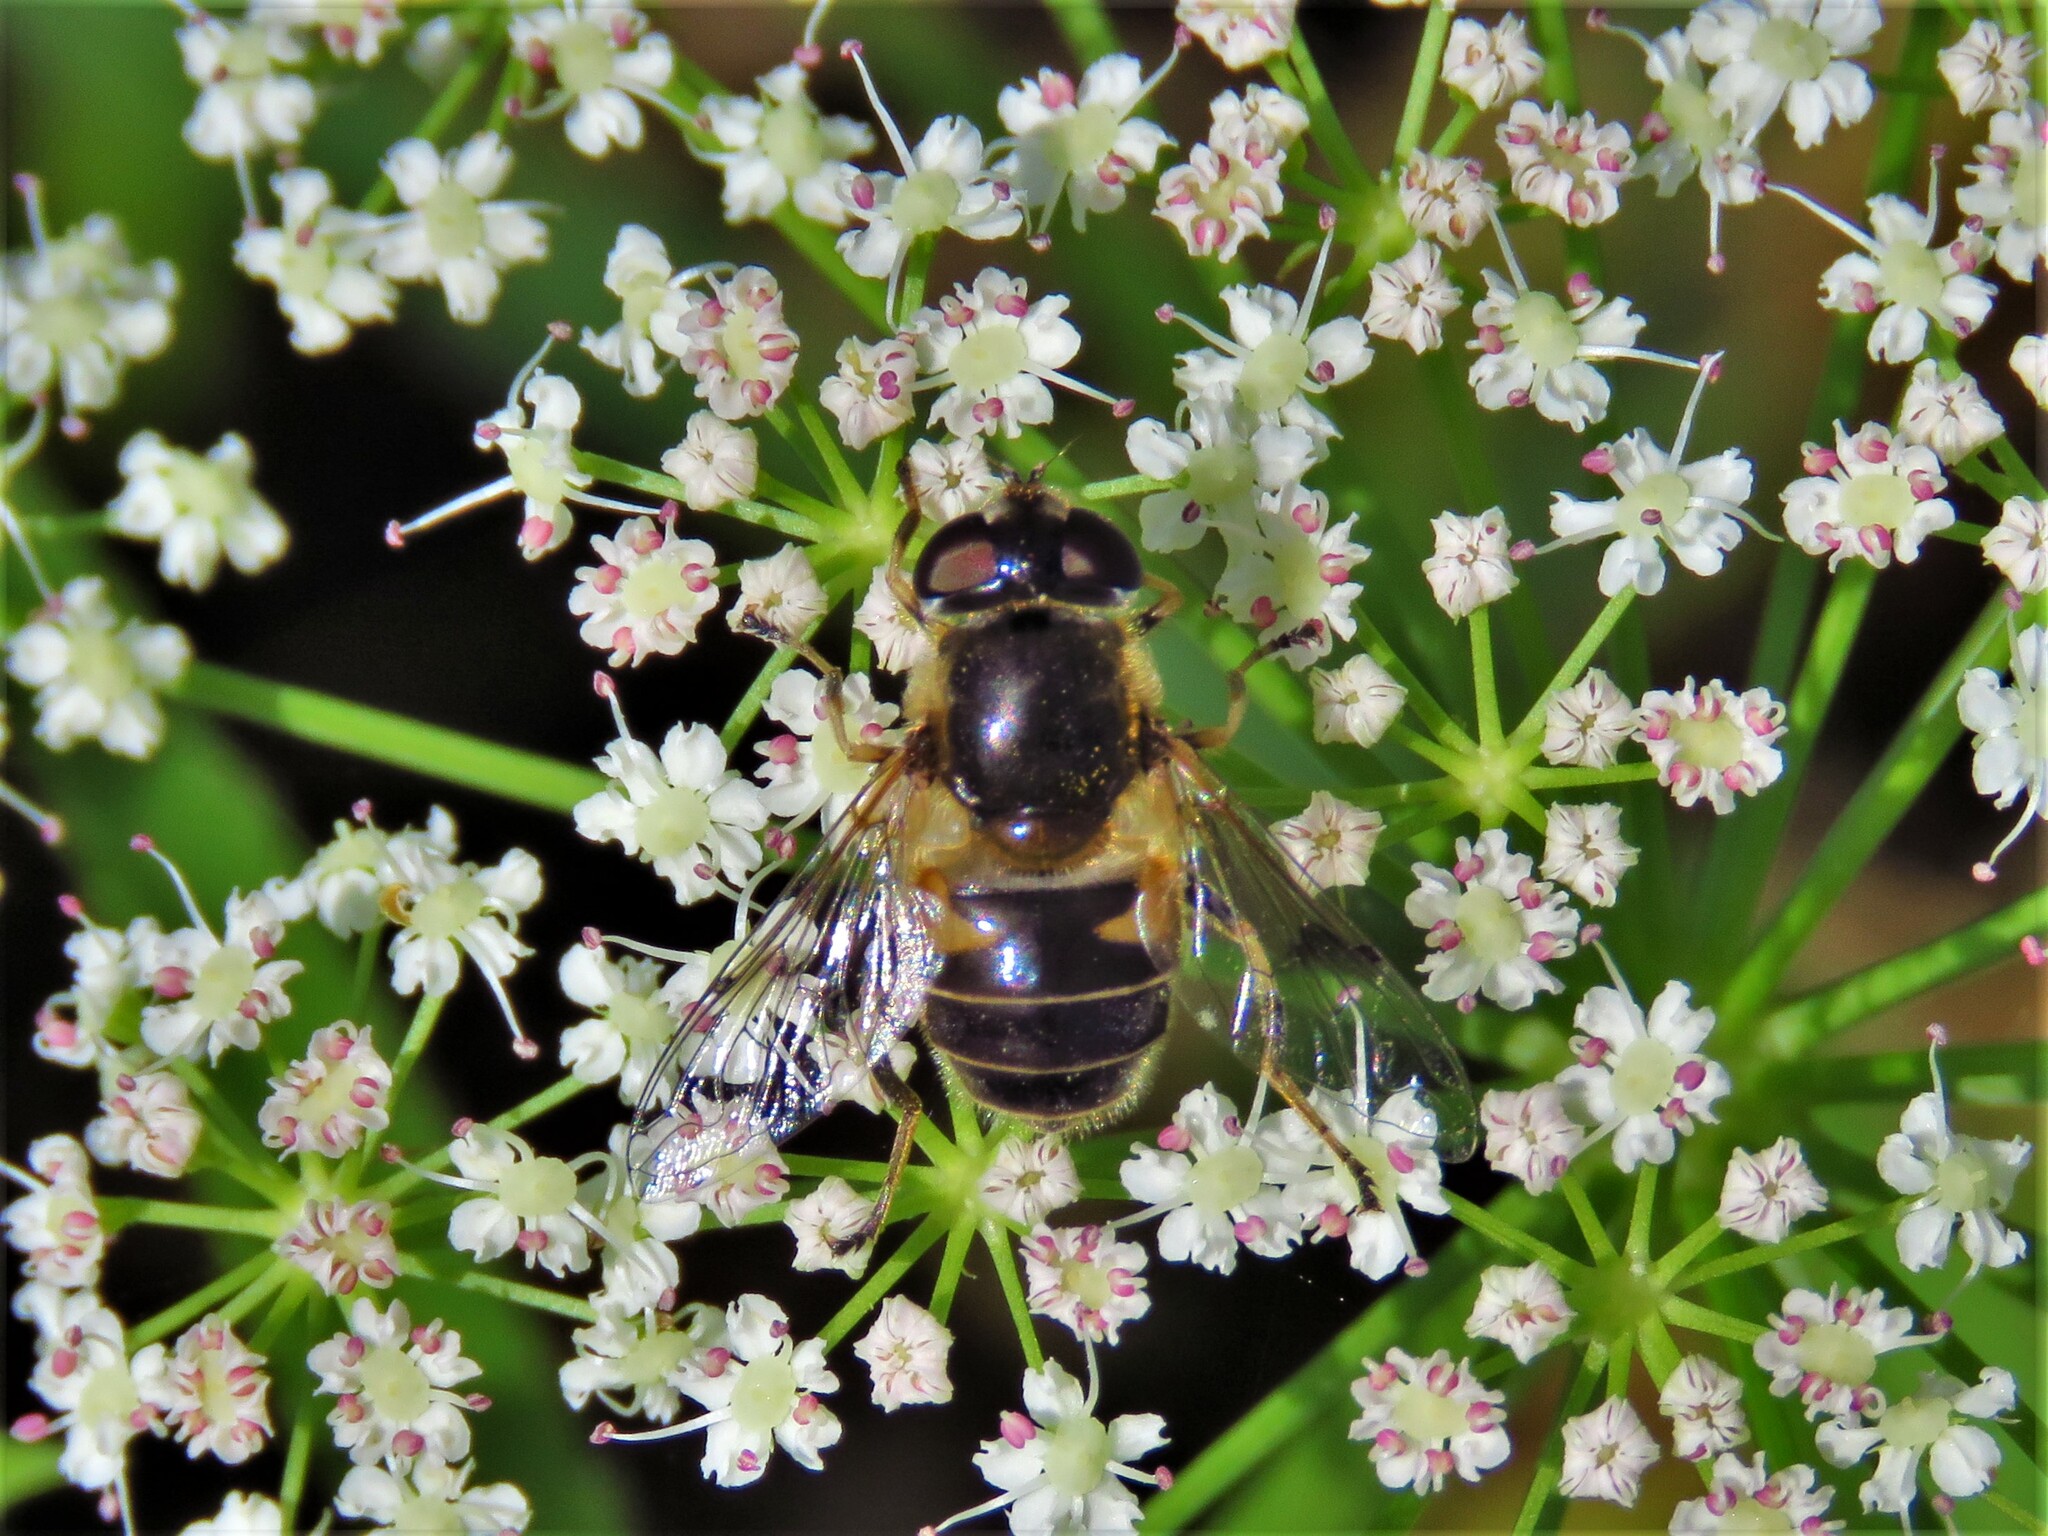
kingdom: Animalia
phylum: Arthropoda
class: Insecta
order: Diptera
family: Syrphidae
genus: Eristalis
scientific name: Eristalis obscura
